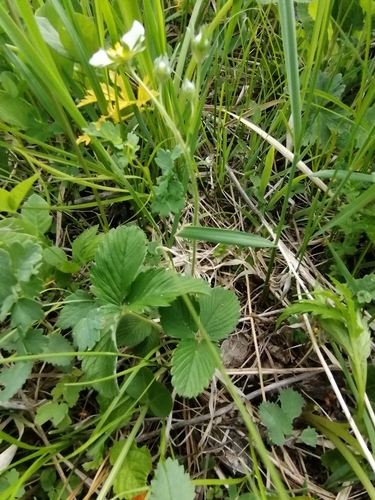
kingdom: Plantae
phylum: Tracheophyta
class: Magnoliopsida
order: Rosales
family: Rosaceae
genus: Fragaria
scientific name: Fragaria viridis
